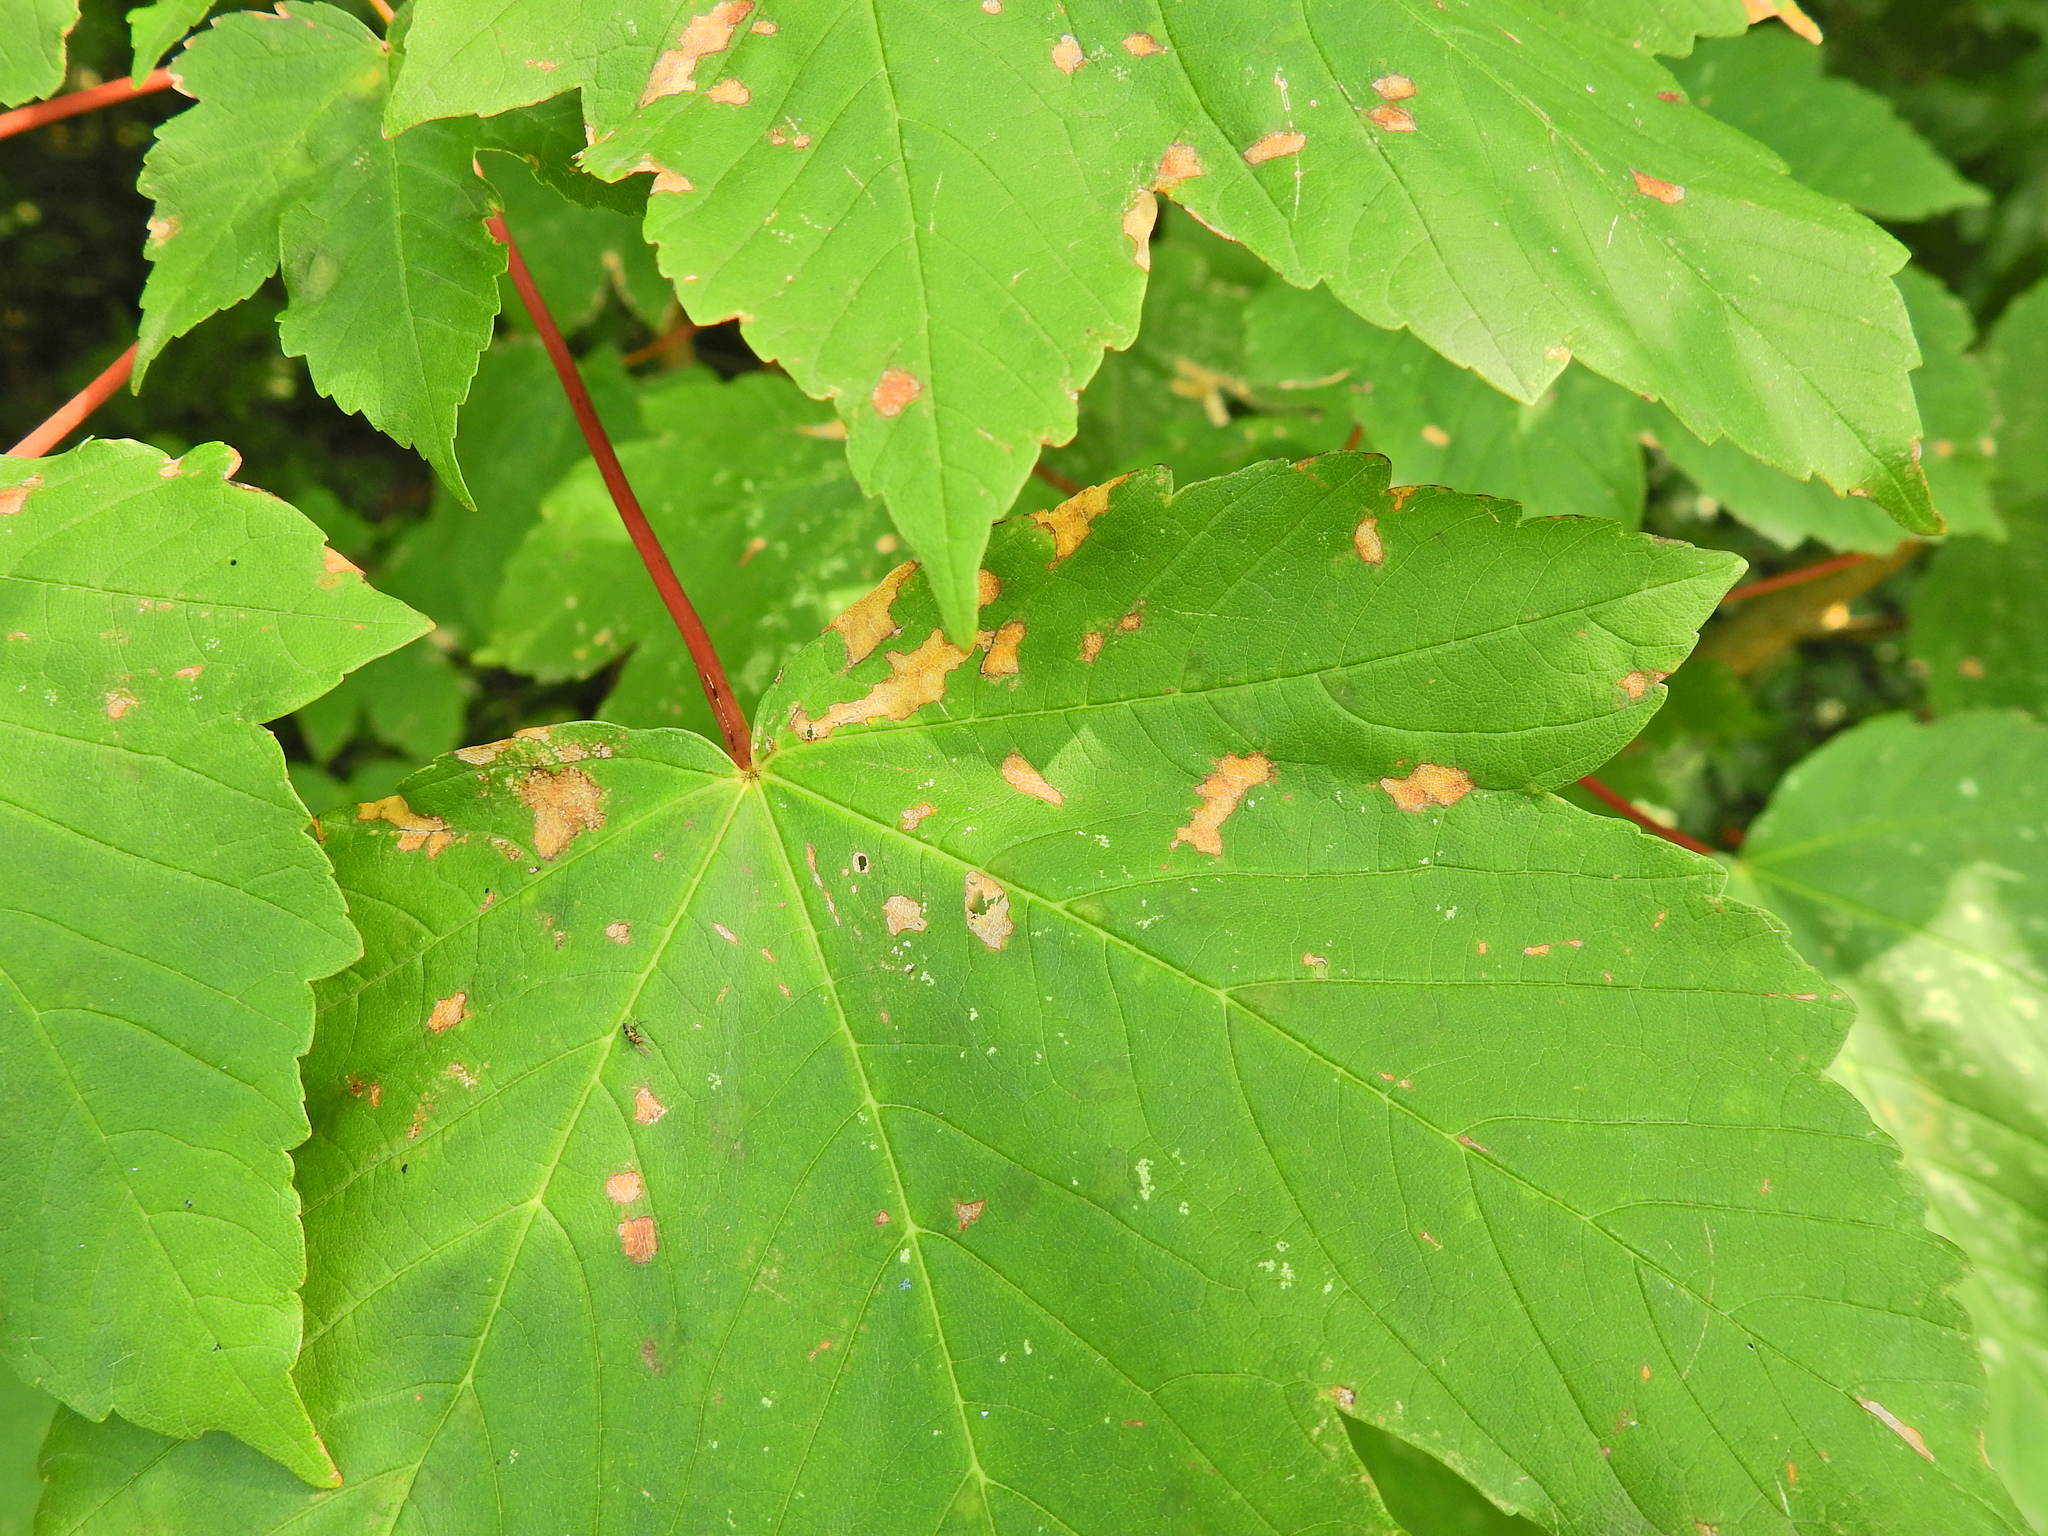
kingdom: Animalia
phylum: Arthropoda
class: Arachnida
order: Trombidiformes
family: Eriophyidae
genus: Aceria
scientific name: Aceria pseudoplatani
